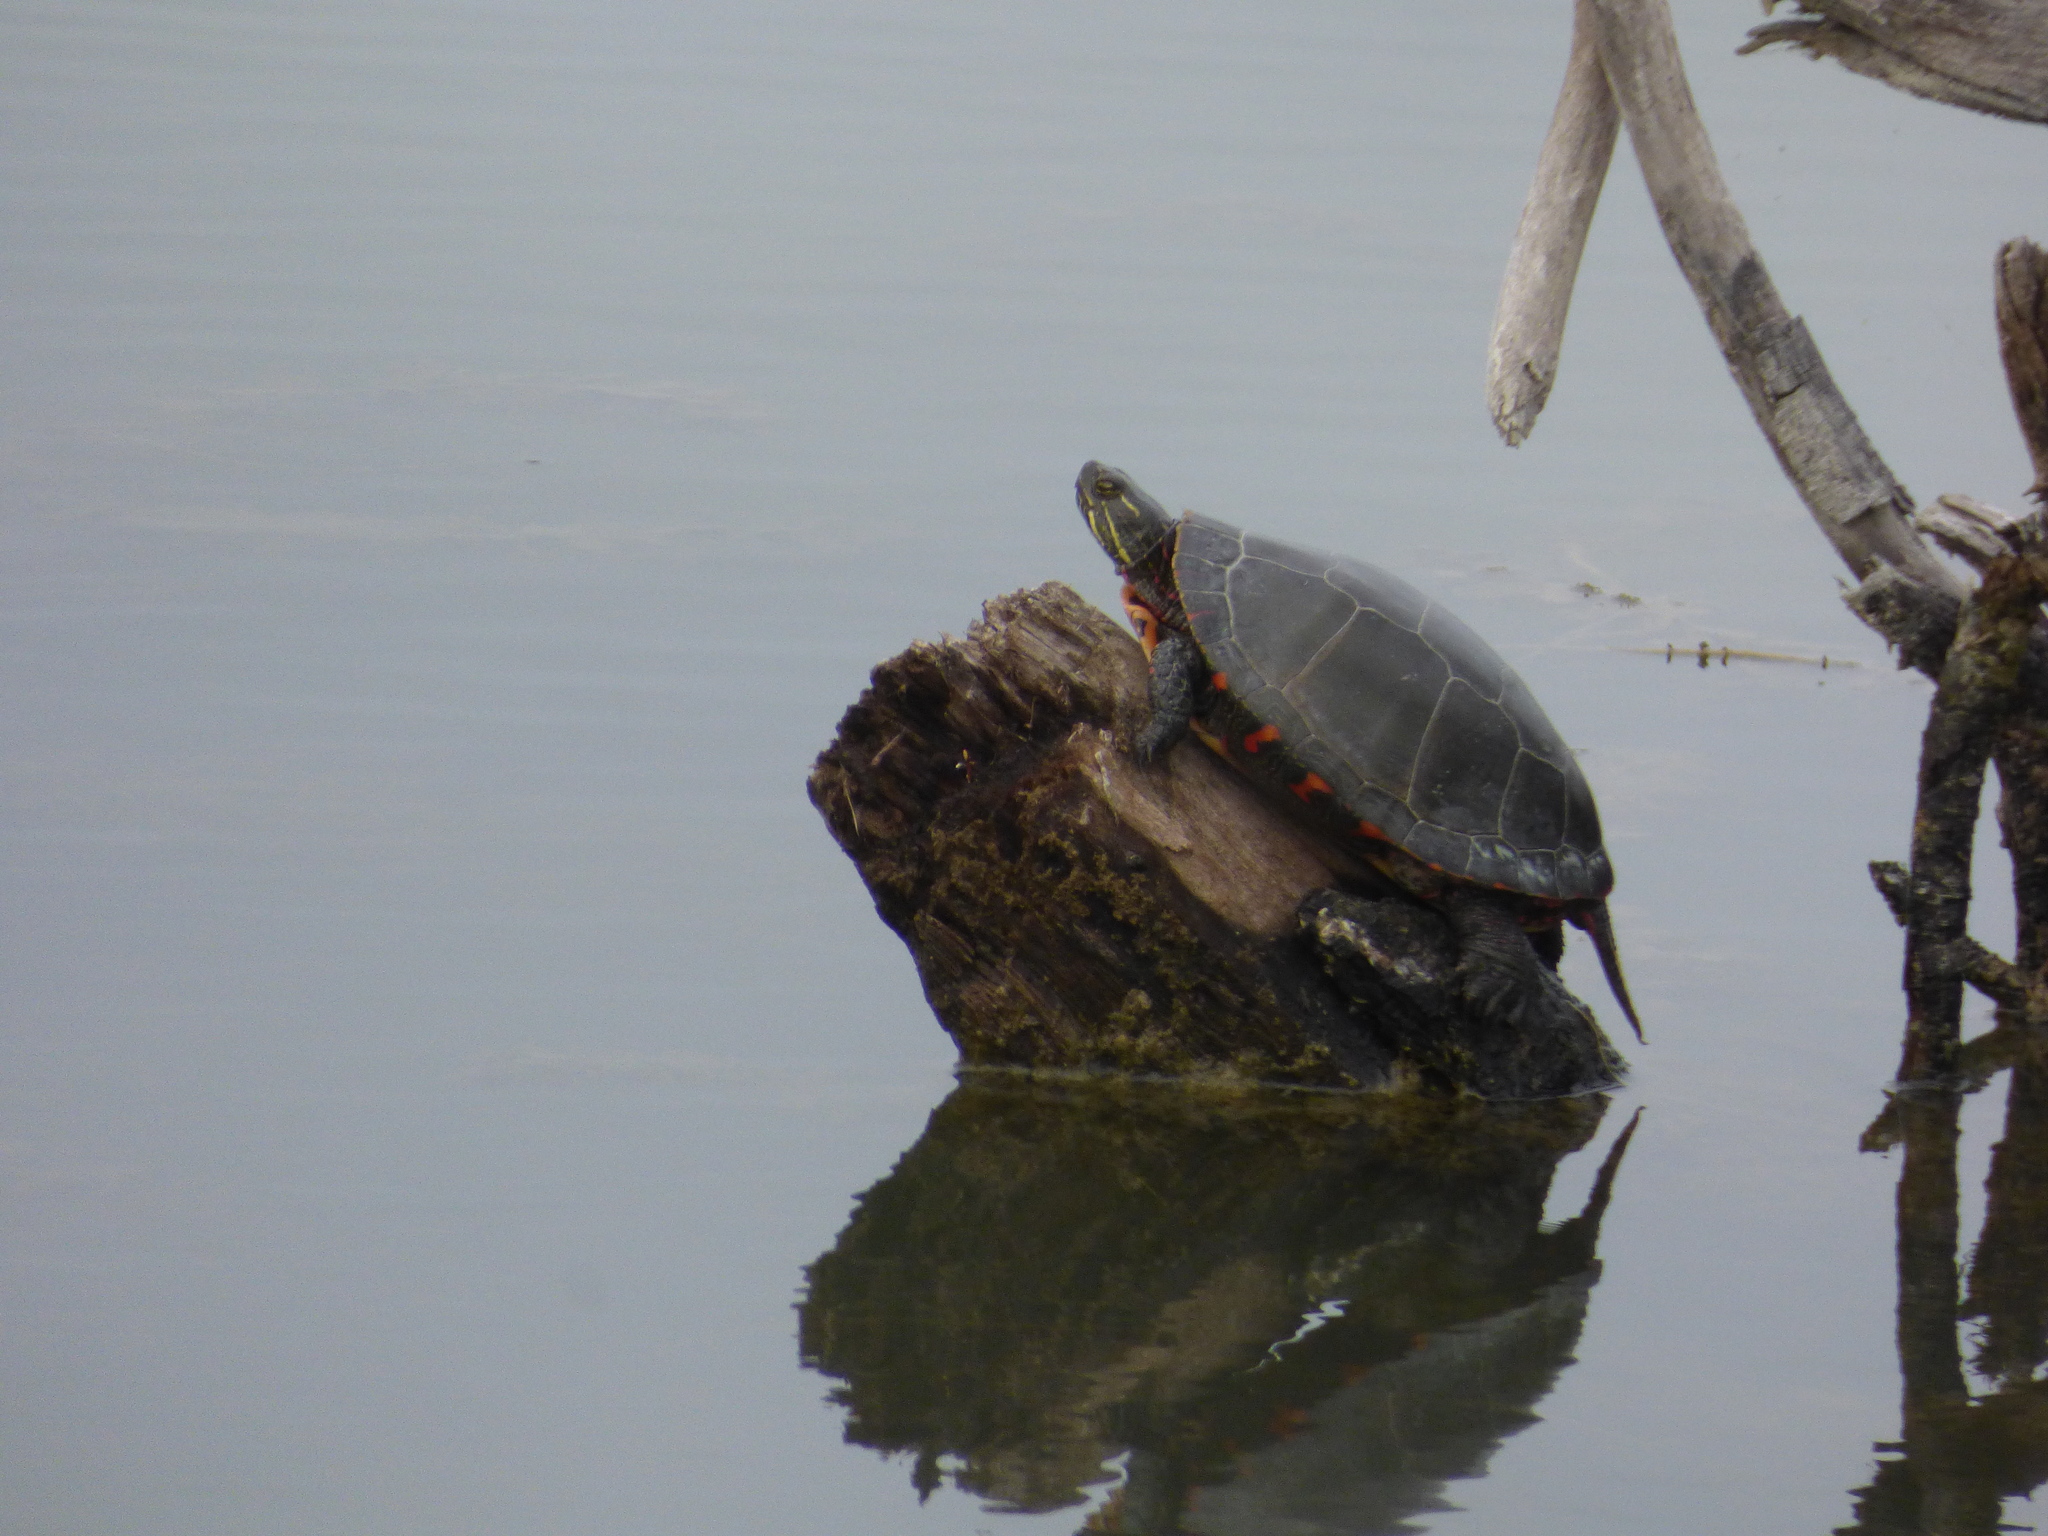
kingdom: Animalia
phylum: Chordata
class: Testudines
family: Emydidae
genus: Chrysemys
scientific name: Chrysemys picta
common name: Painted turtle
